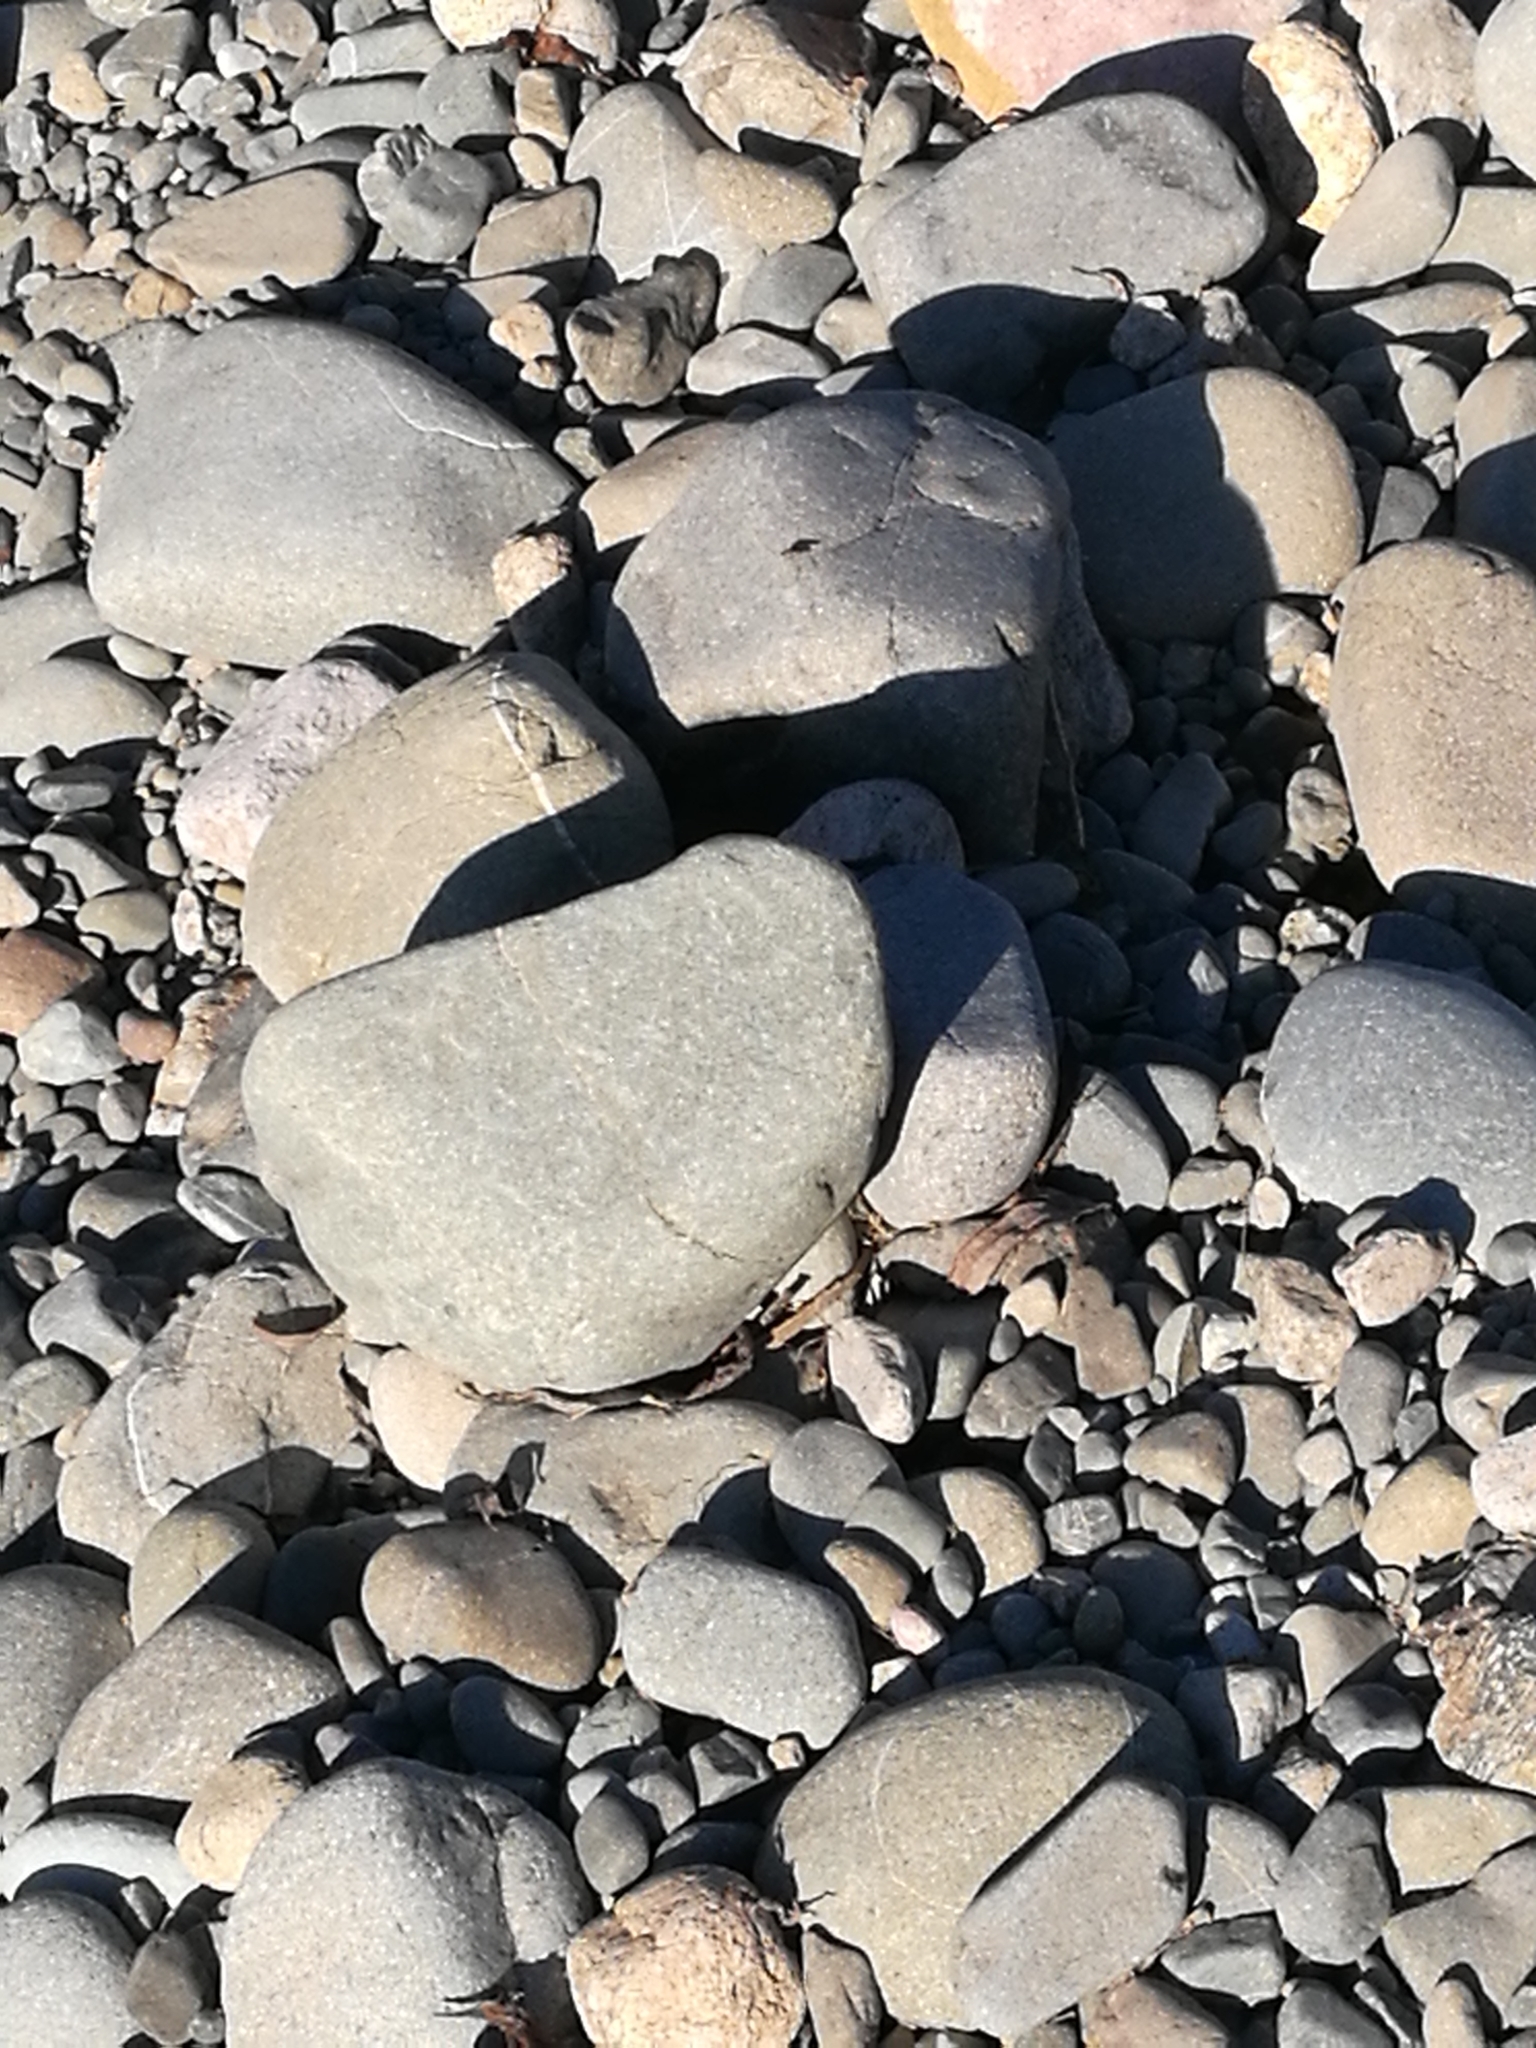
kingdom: Animalia
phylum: Arthropoda
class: Insecta
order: Lepidoptera
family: Pieridae
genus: Pieris
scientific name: Pieris rapae
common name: Small white
